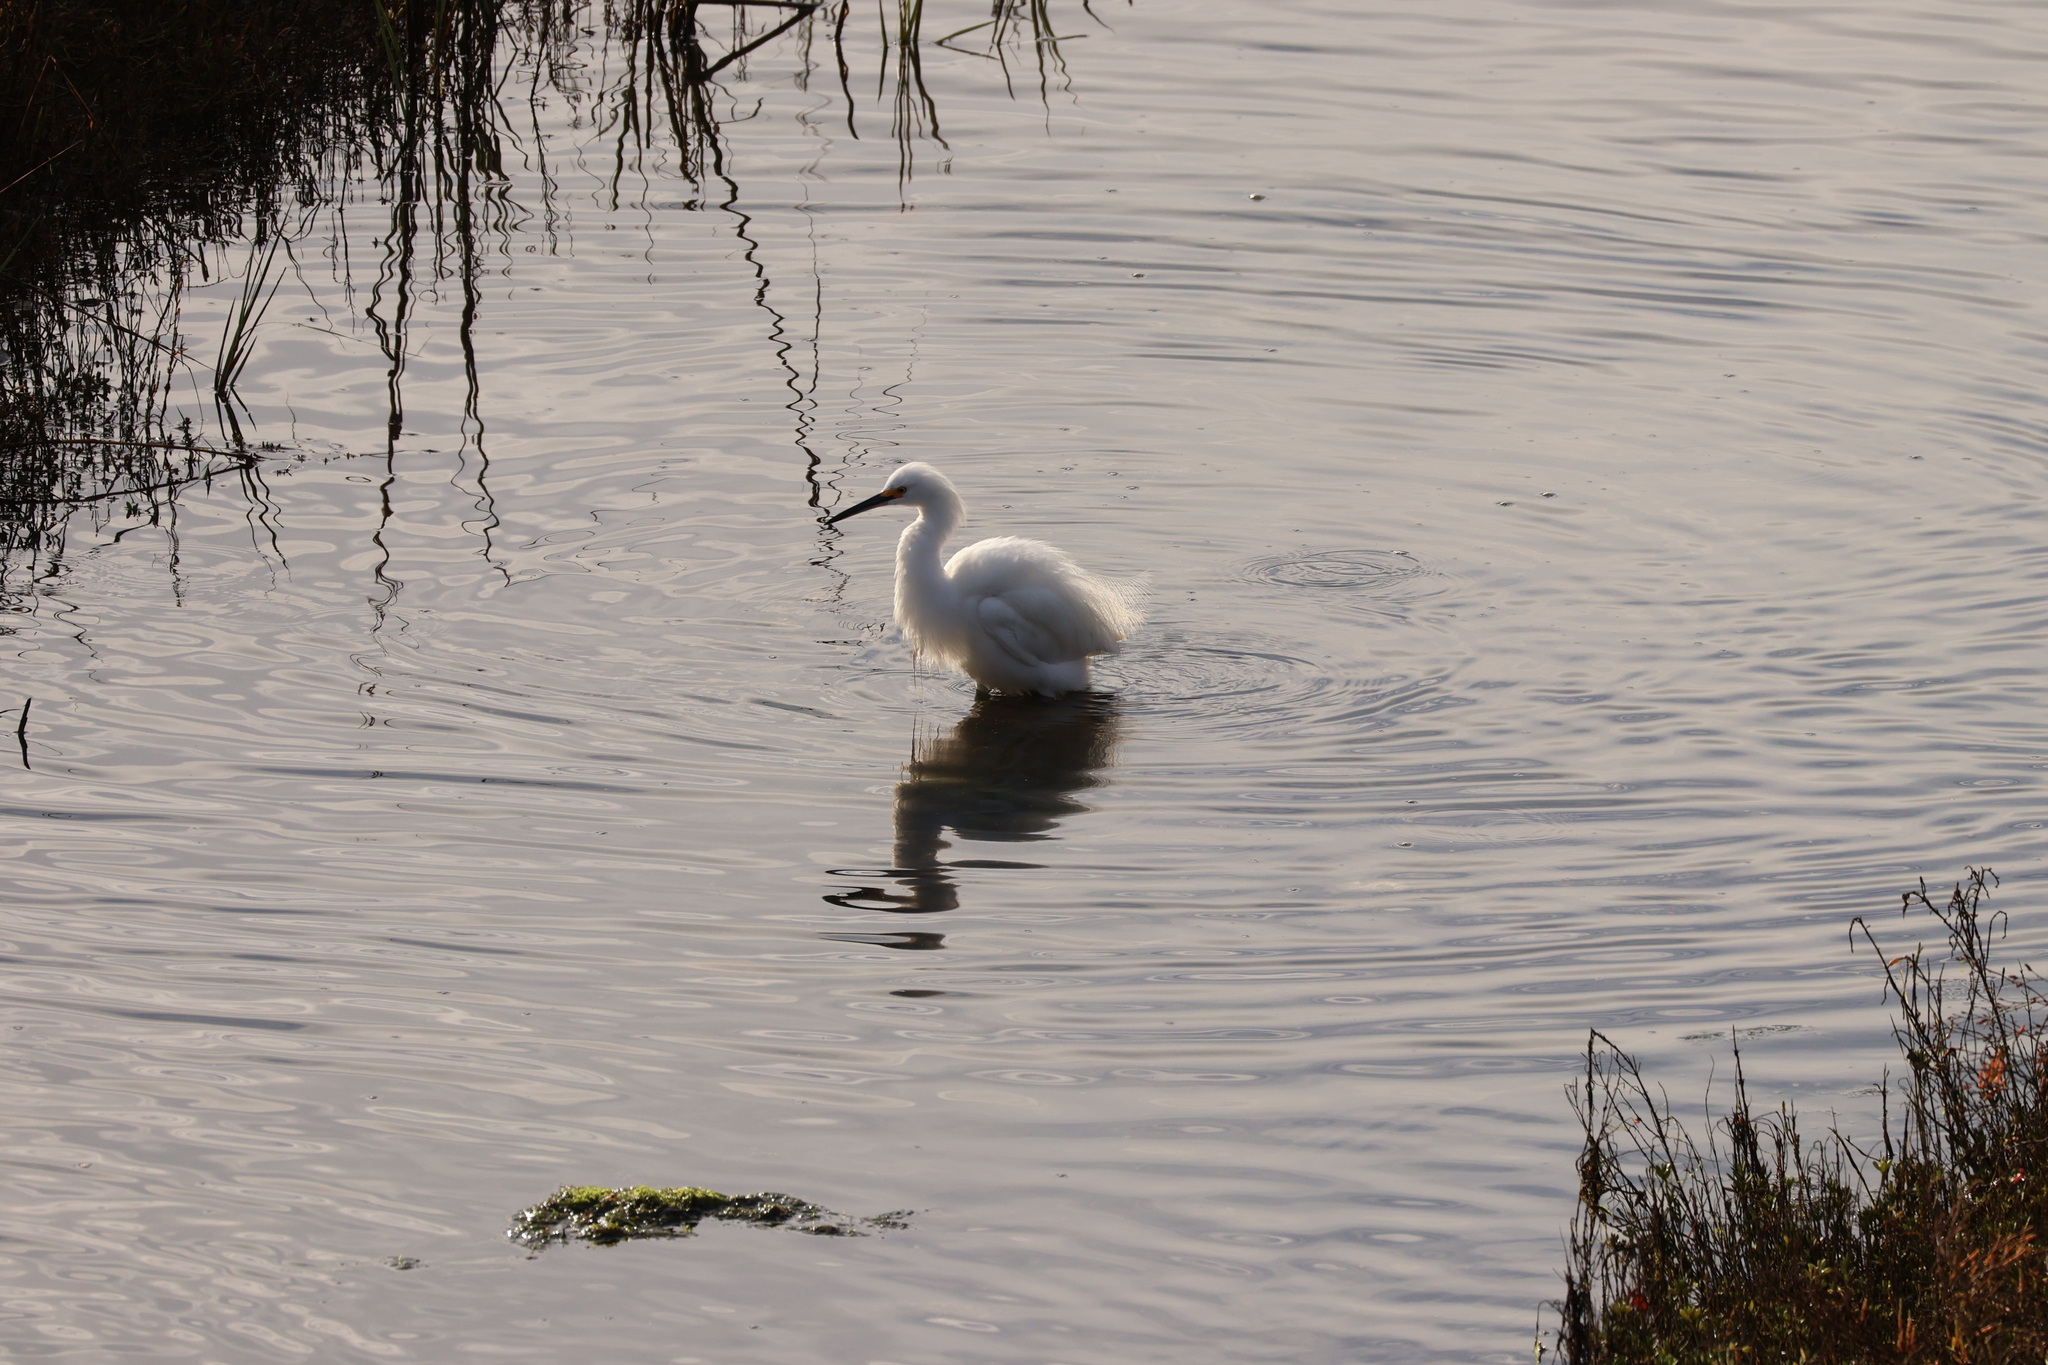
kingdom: Animalia
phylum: Chordata
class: Aves
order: Pelecaniformes
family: Ardeidae
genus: Egretta
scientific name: Egretta thula
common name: Snowy egret
